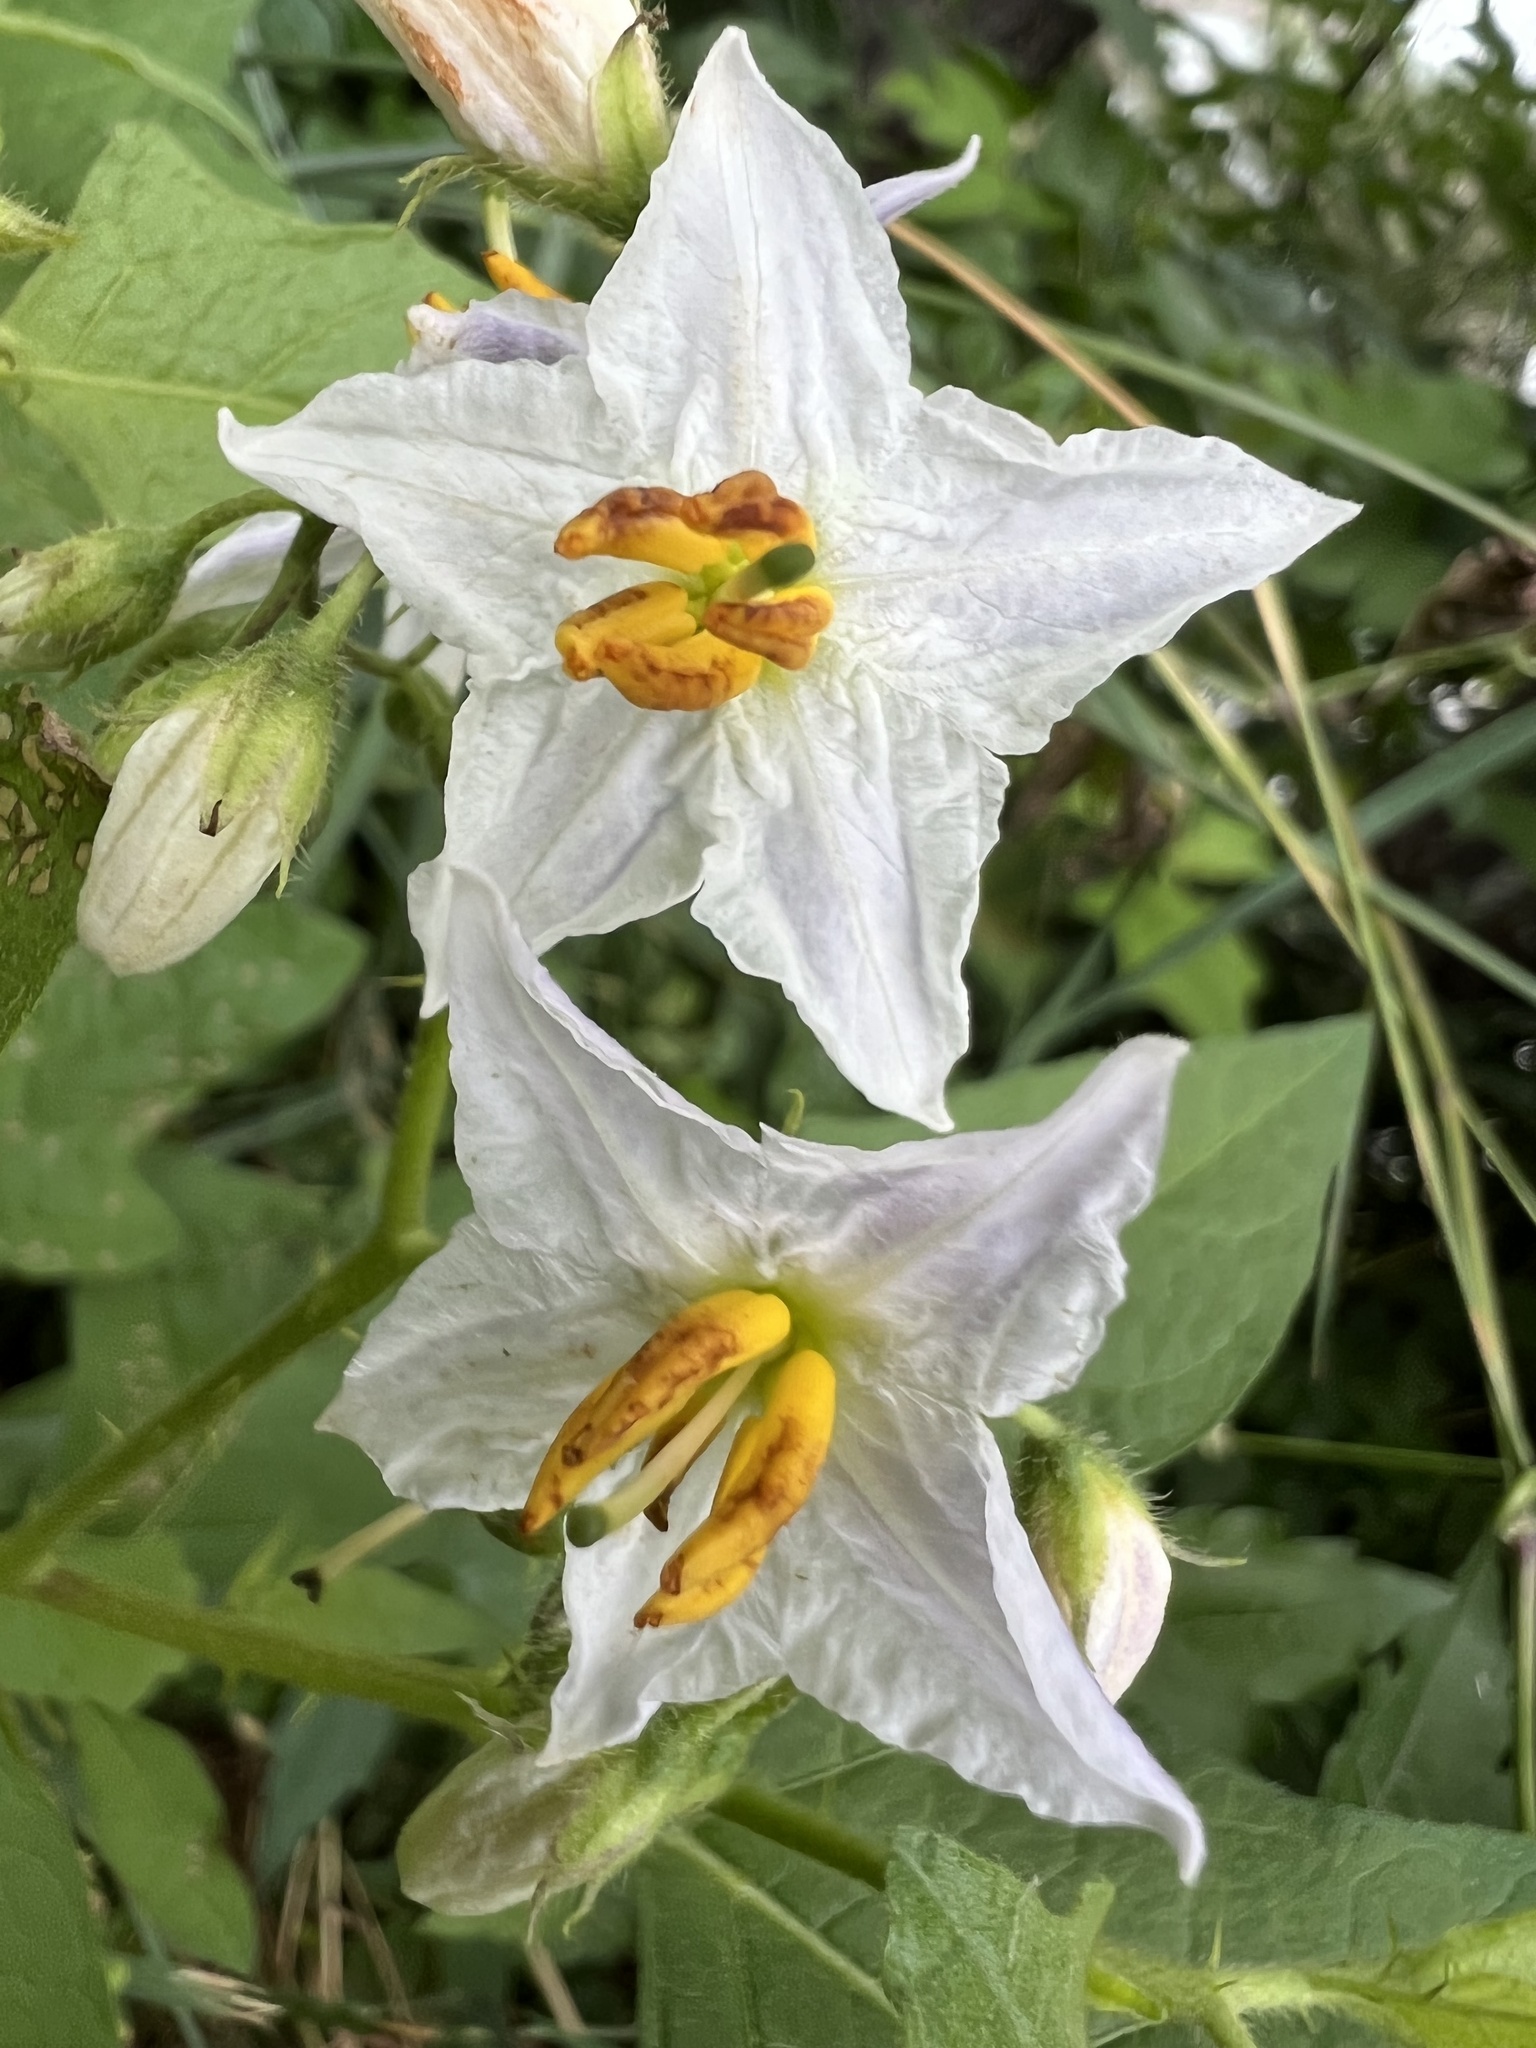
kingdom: Plantae
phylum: Tracheophyta
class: Magnoliopsida
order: Solanales
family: Solanaceae
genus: Solanum
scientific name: Solanum carolinense
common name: Horse-nettle
